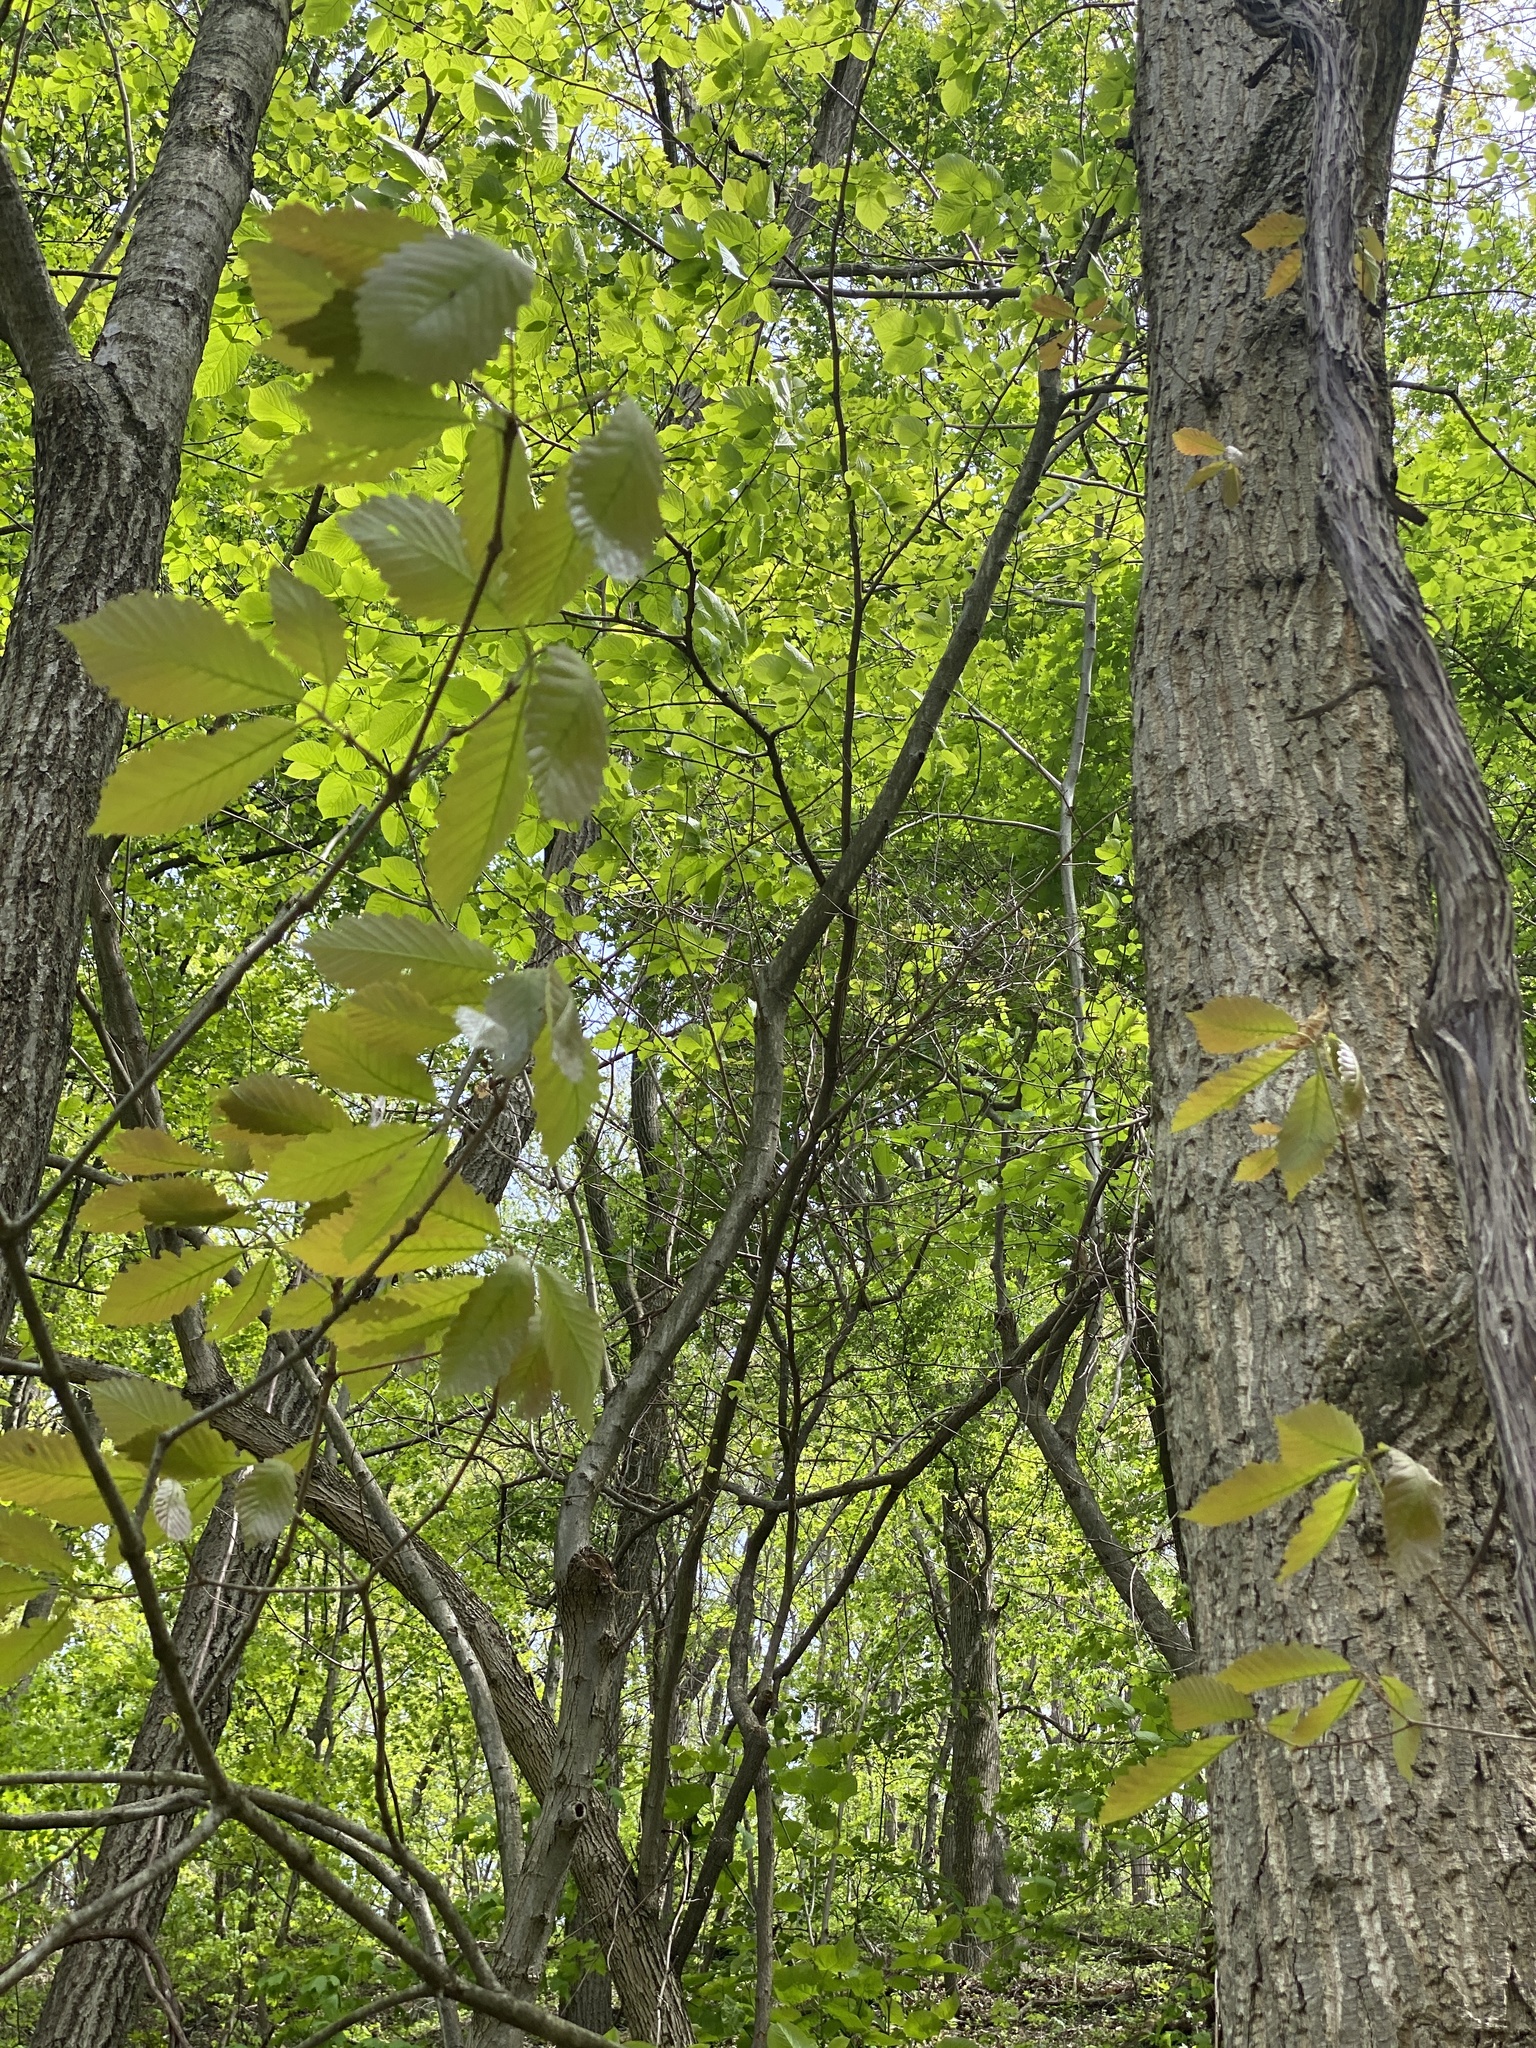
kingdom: Plantae
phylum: Tracheophyta
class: Magnoliopsida
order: Fagales
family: Fagaceae
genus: Quercus
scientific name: Quercus montana
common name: Chestnut oak
